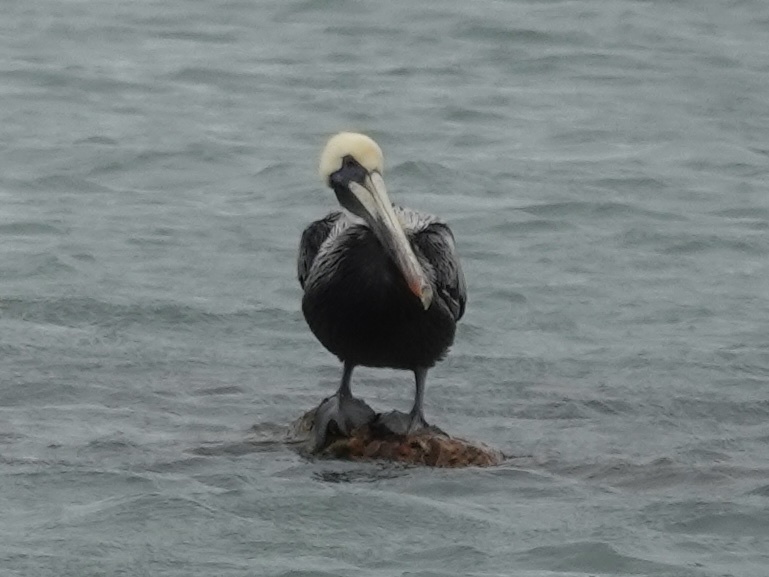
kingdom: Animalia
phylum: Chordata
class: Aves
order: Pelecaniformes
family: Pelecanidae
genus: Pelecanus
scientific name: Pelecanus occidentalis
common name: Brown pelican
